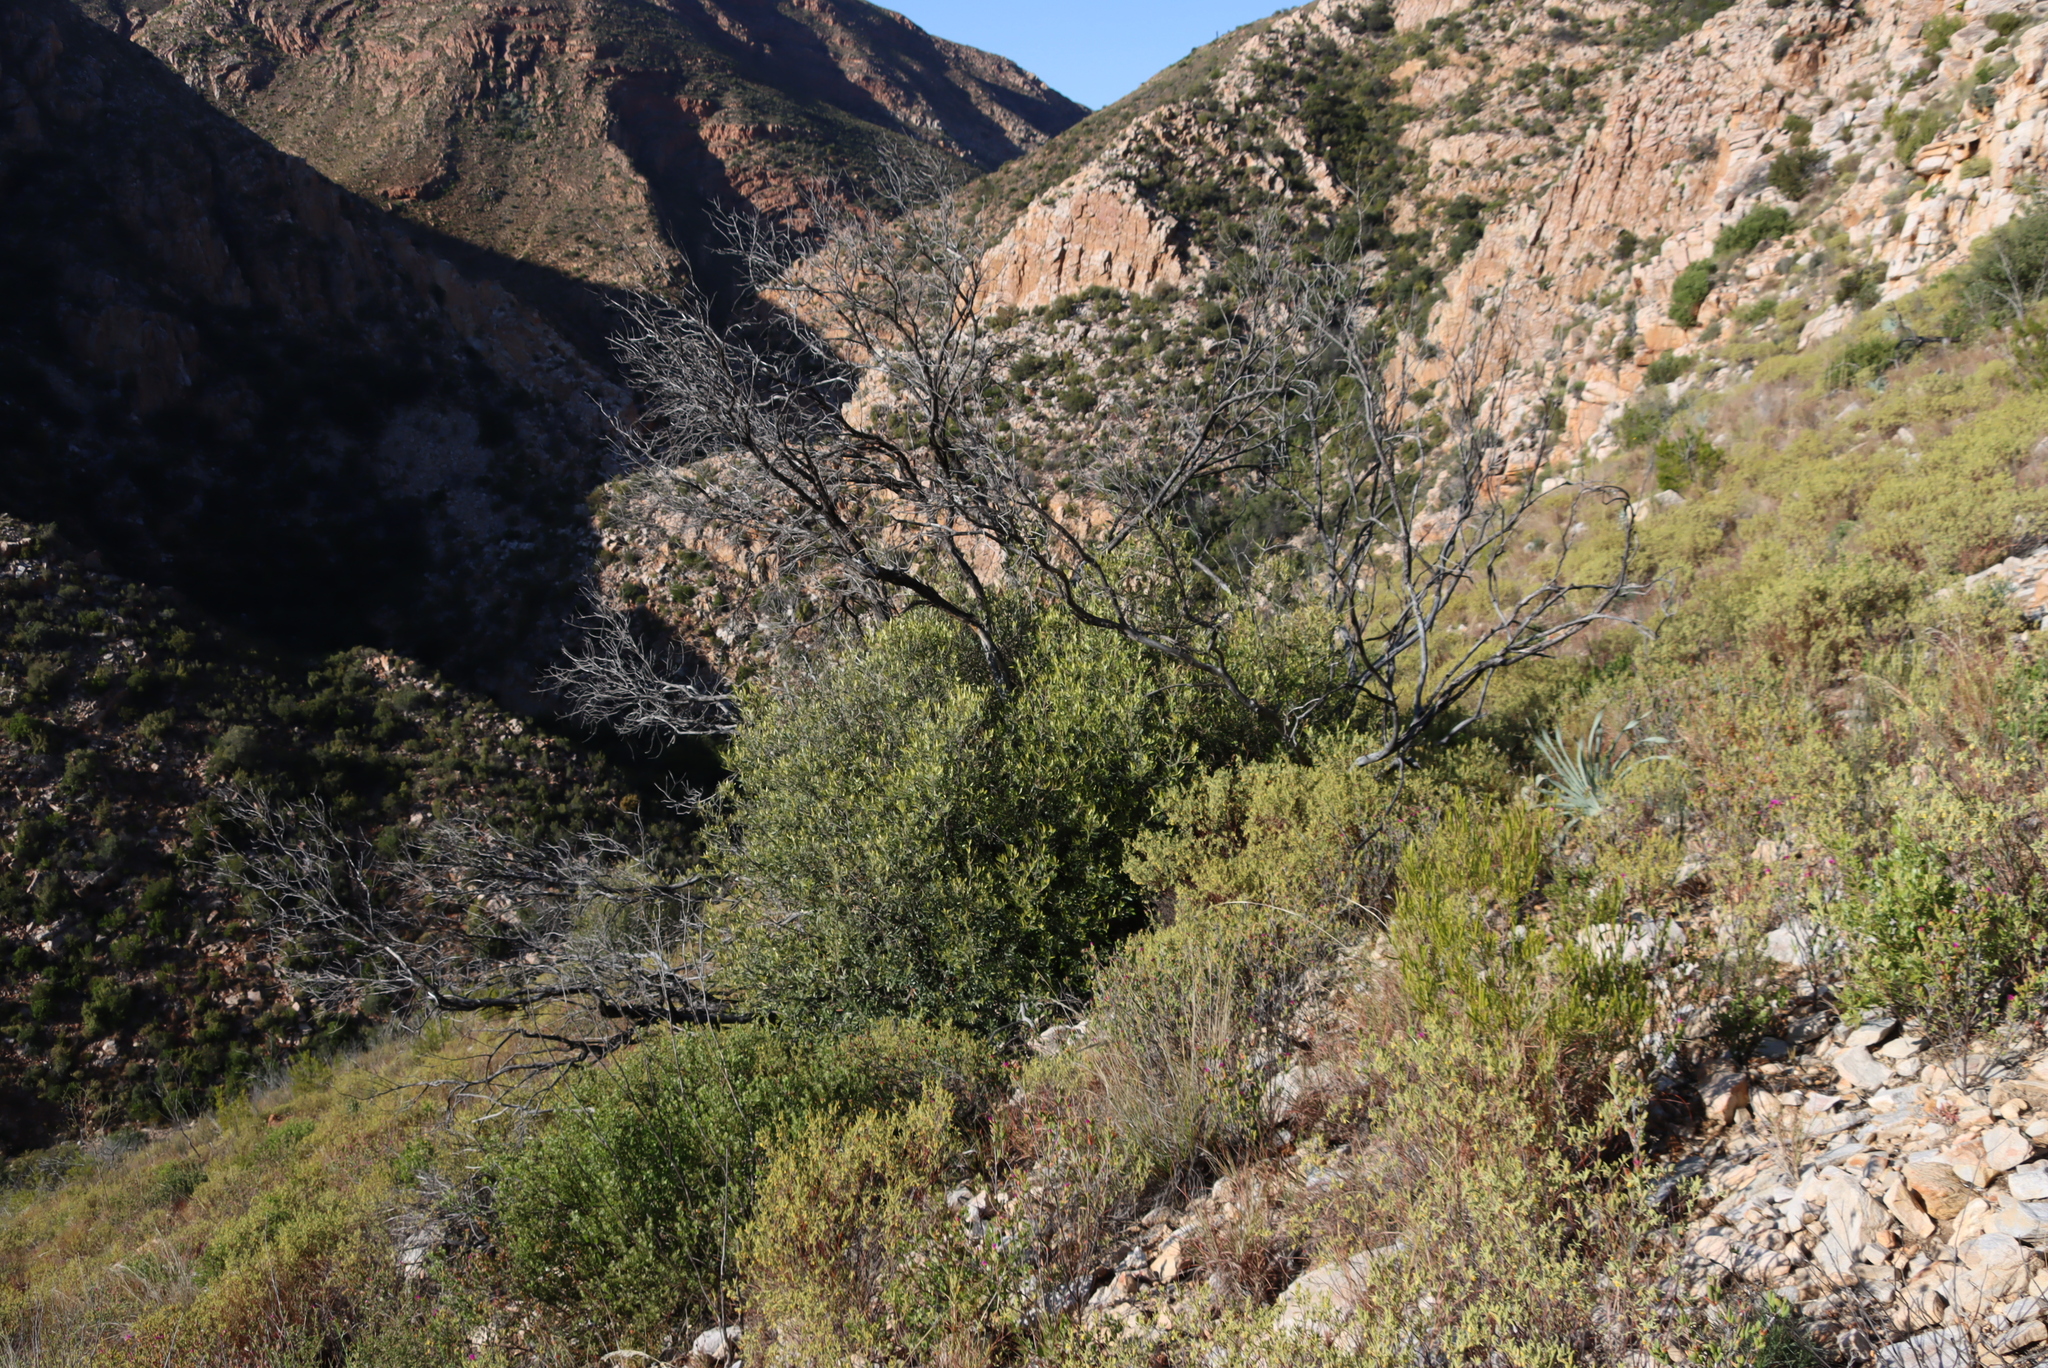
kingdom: Plantae
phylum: Tracheophyta
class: Magnoliopsida
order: Malpighiales
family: Achariaceae
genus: Kiggelaria
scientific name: Kiggelaria africana
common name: Wild peach
